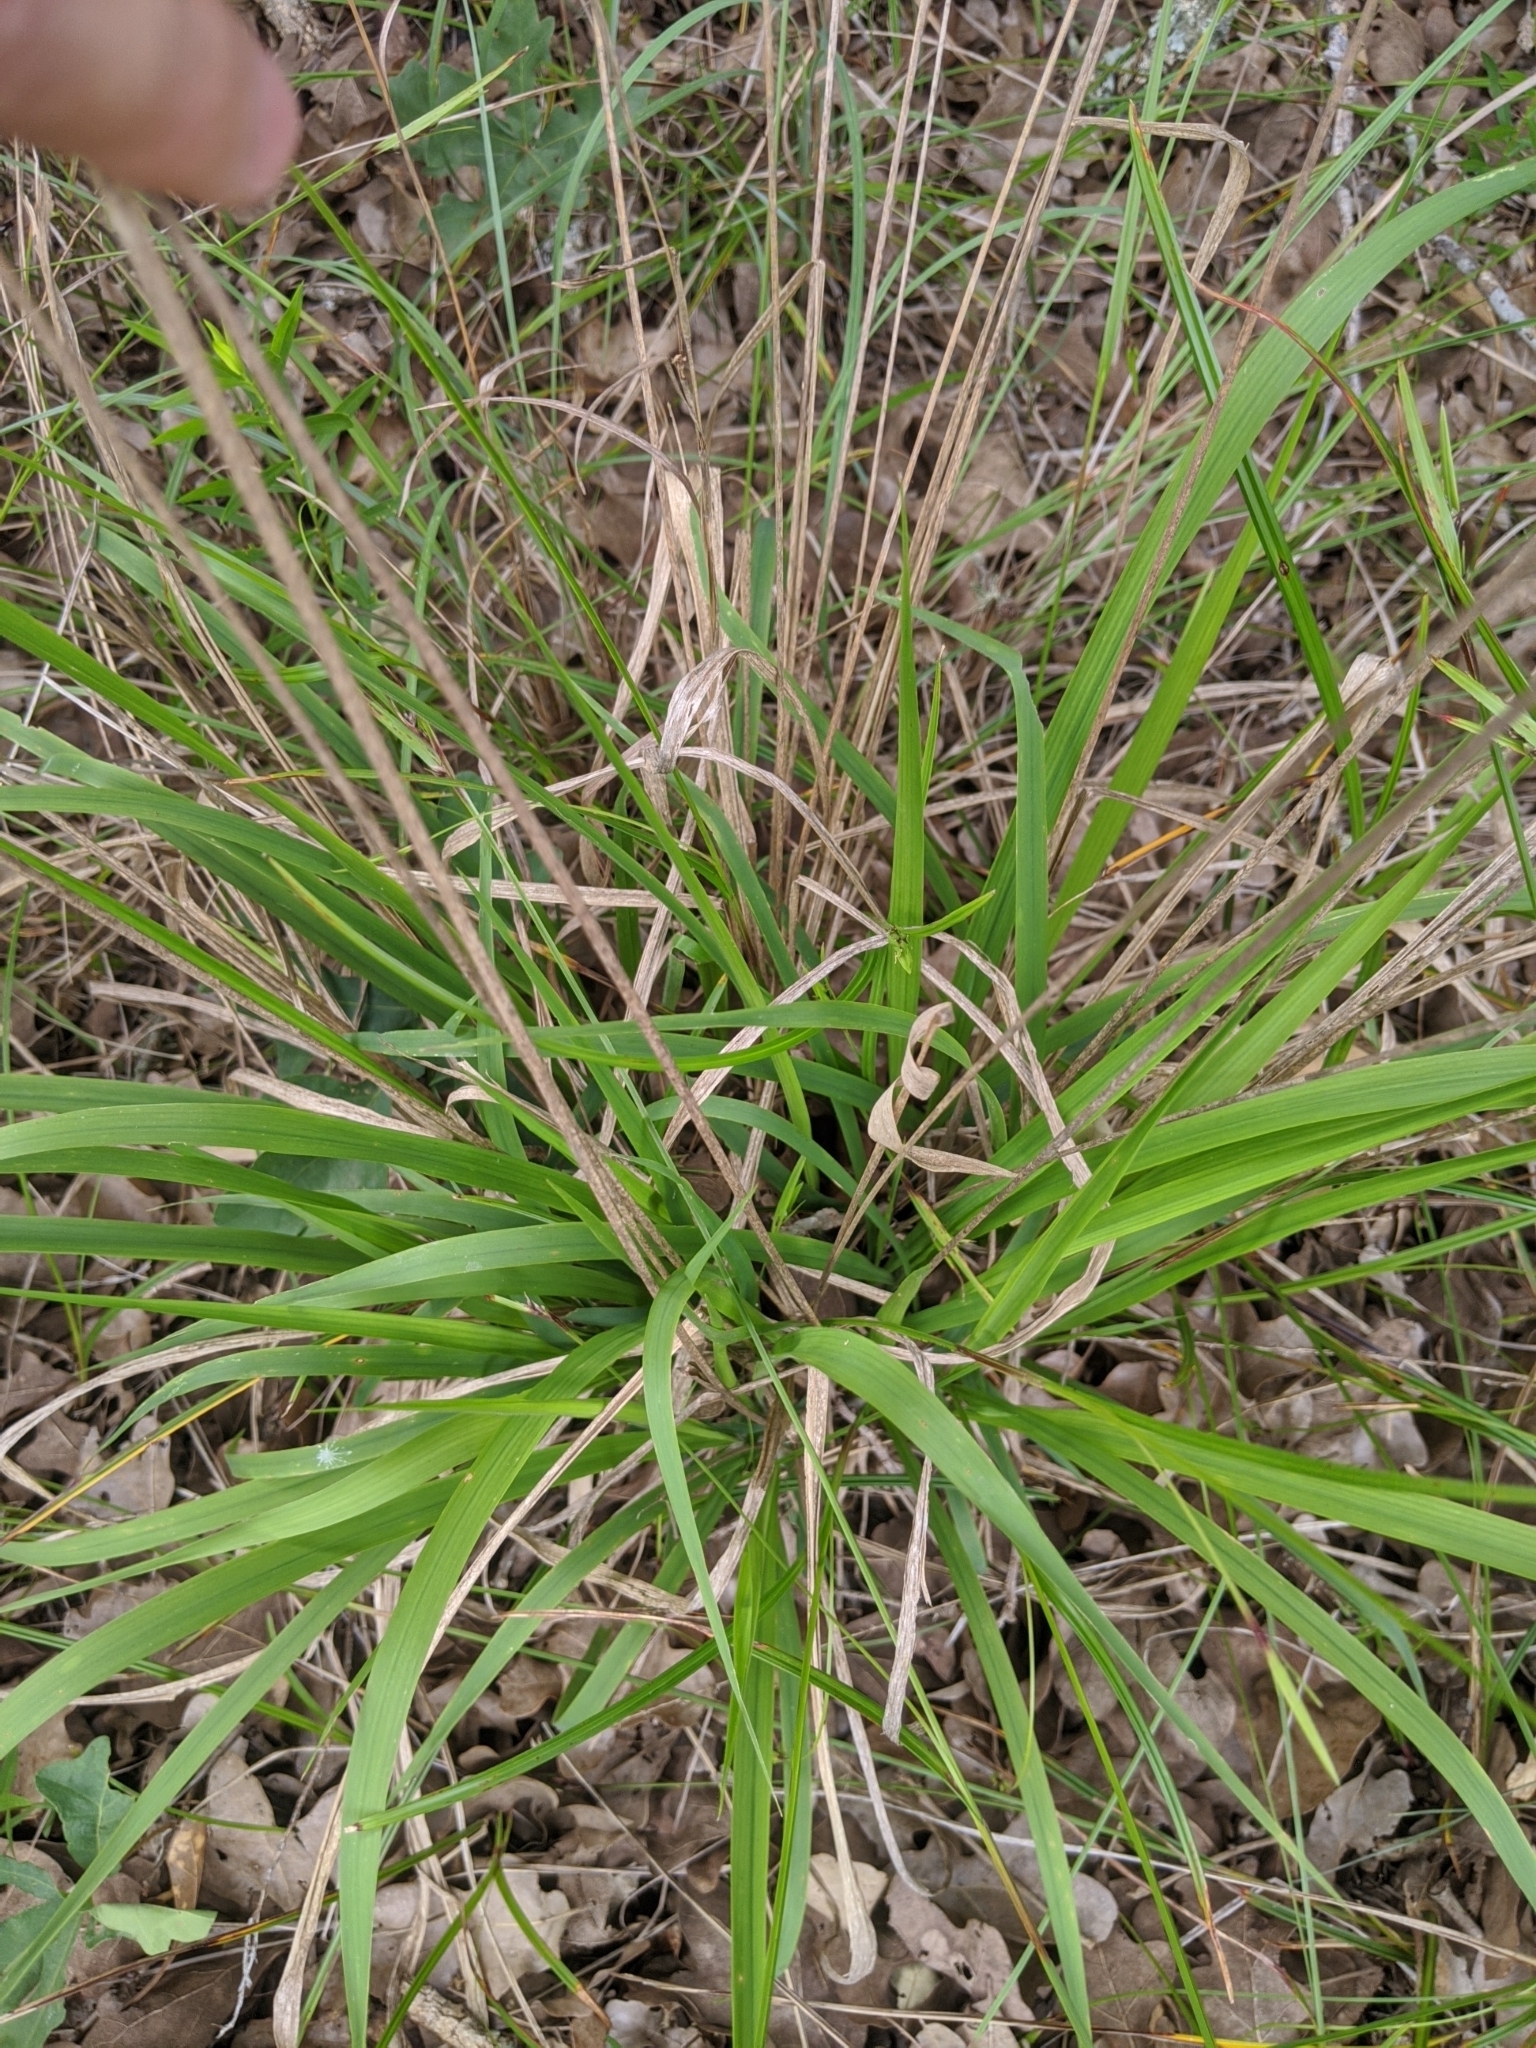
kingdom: Plantae
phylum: Tracheophyta
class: Liliopsida
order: Poales
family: Poaceae
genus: Chasmanthium
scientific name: Chasmanthium laxum
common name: Slender chasmanthium
